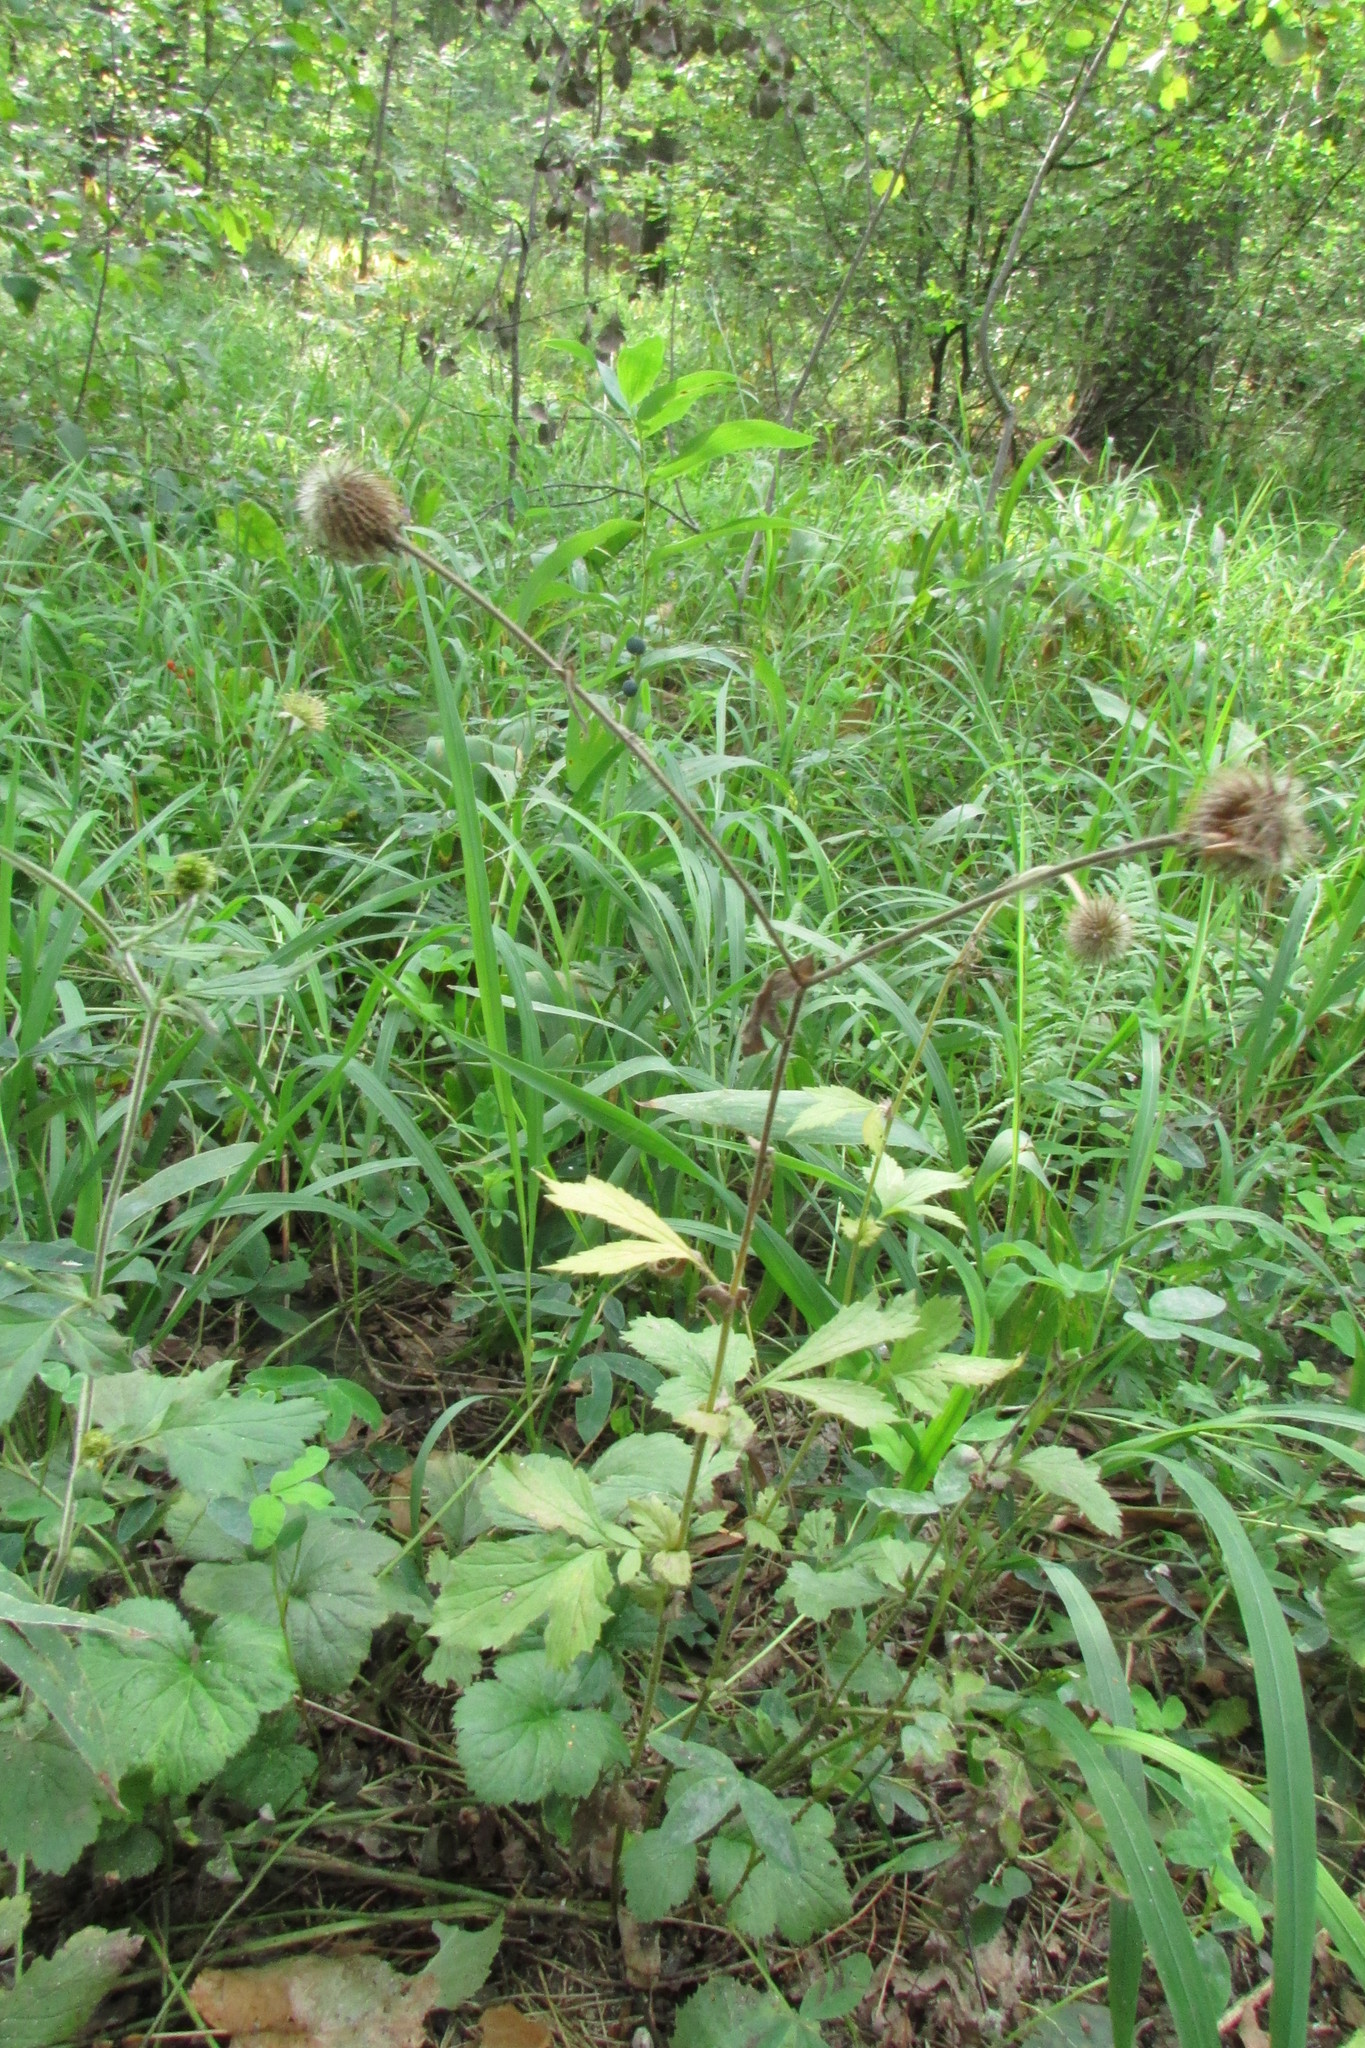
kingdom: Plantae
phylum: Tracheophyta
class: Magnoliopsida
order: Rosales
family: Rosaceae
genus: Geum
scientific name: Geum aleppicum
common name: Yellow avens
